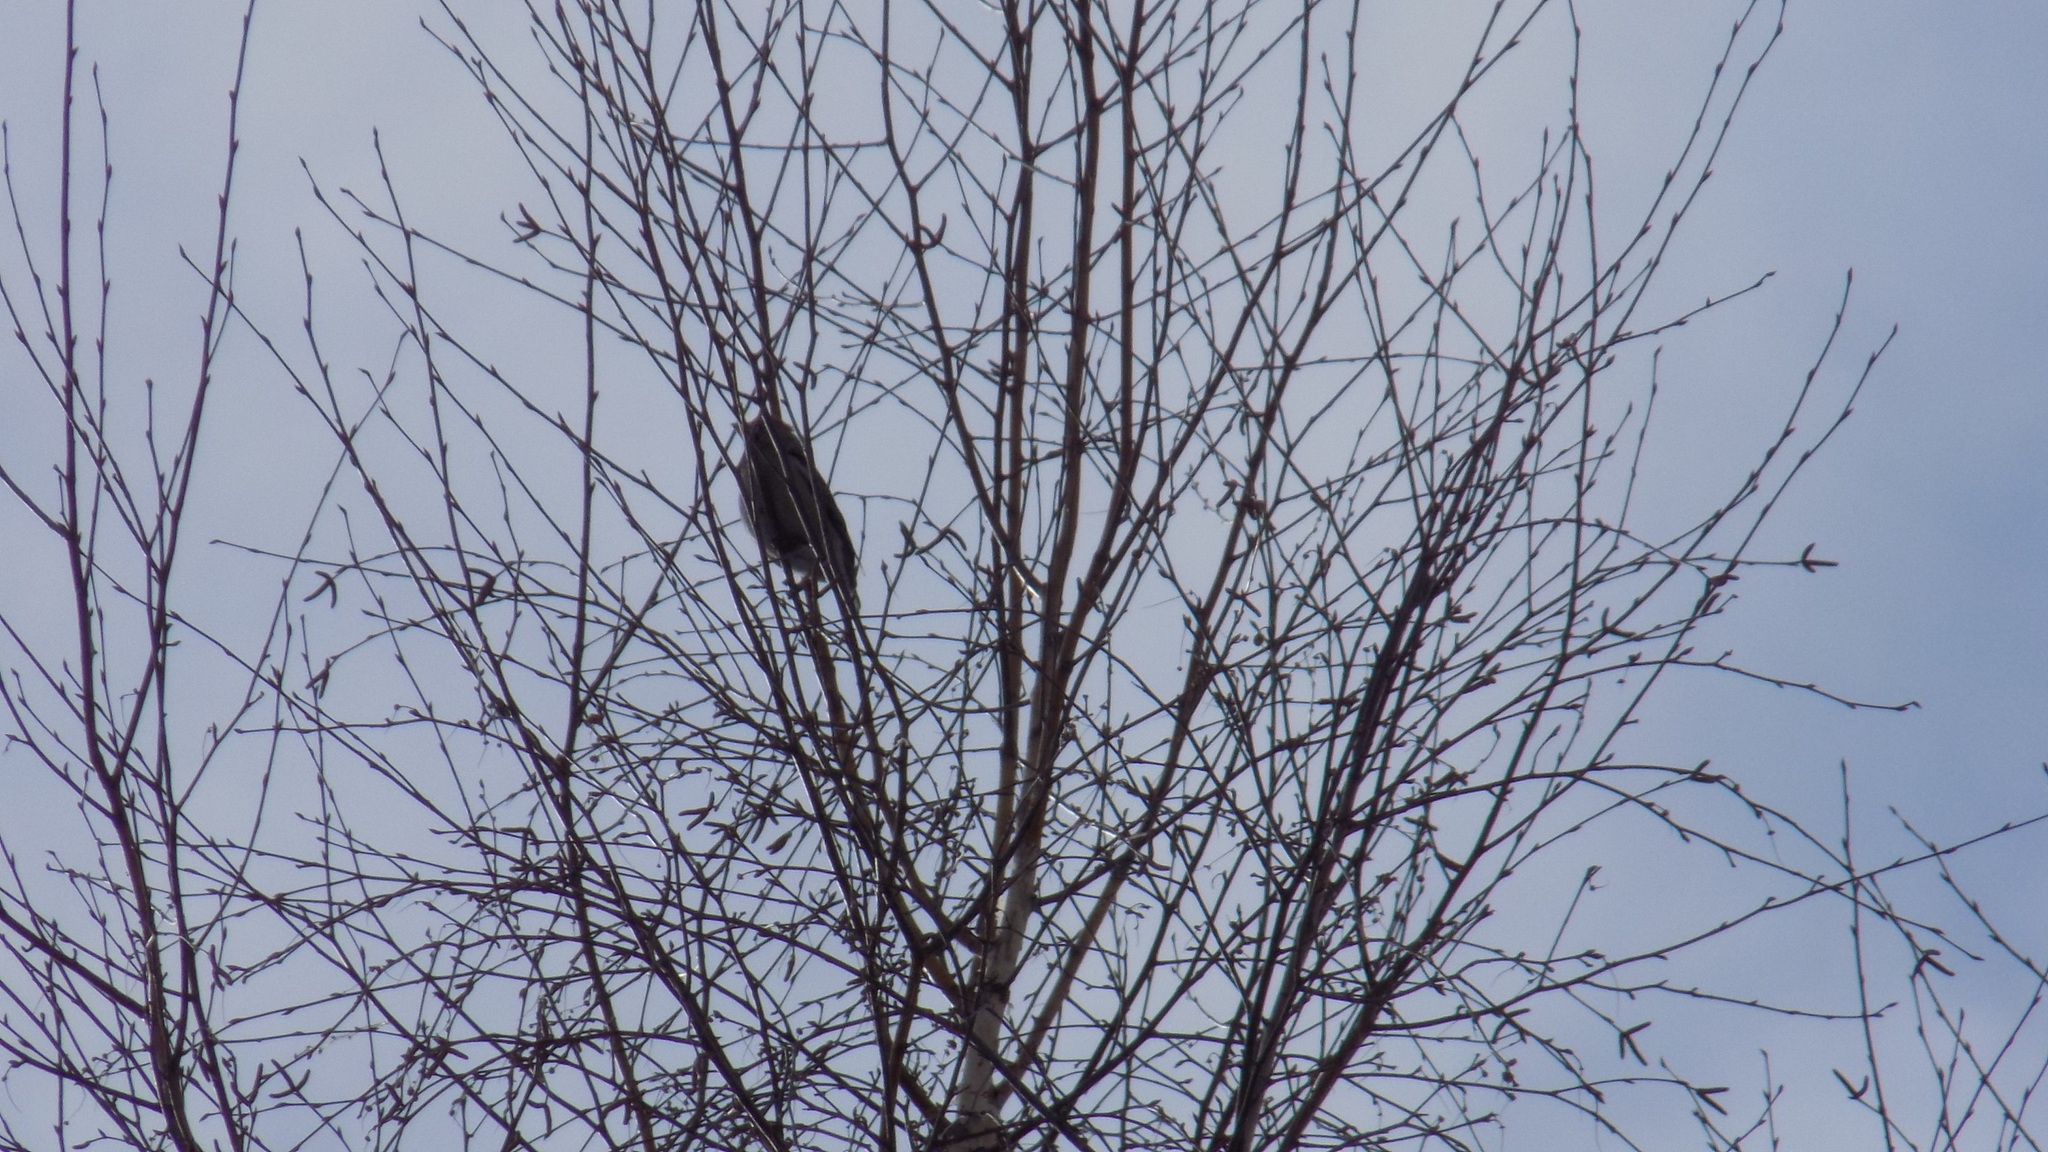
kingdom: Animalia
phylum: Chordata
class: Aves
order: Passeriformes
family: Fringillidae
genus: Coccothraustes
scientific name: Coccothraustes coccothraustes
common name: Hawfinch
